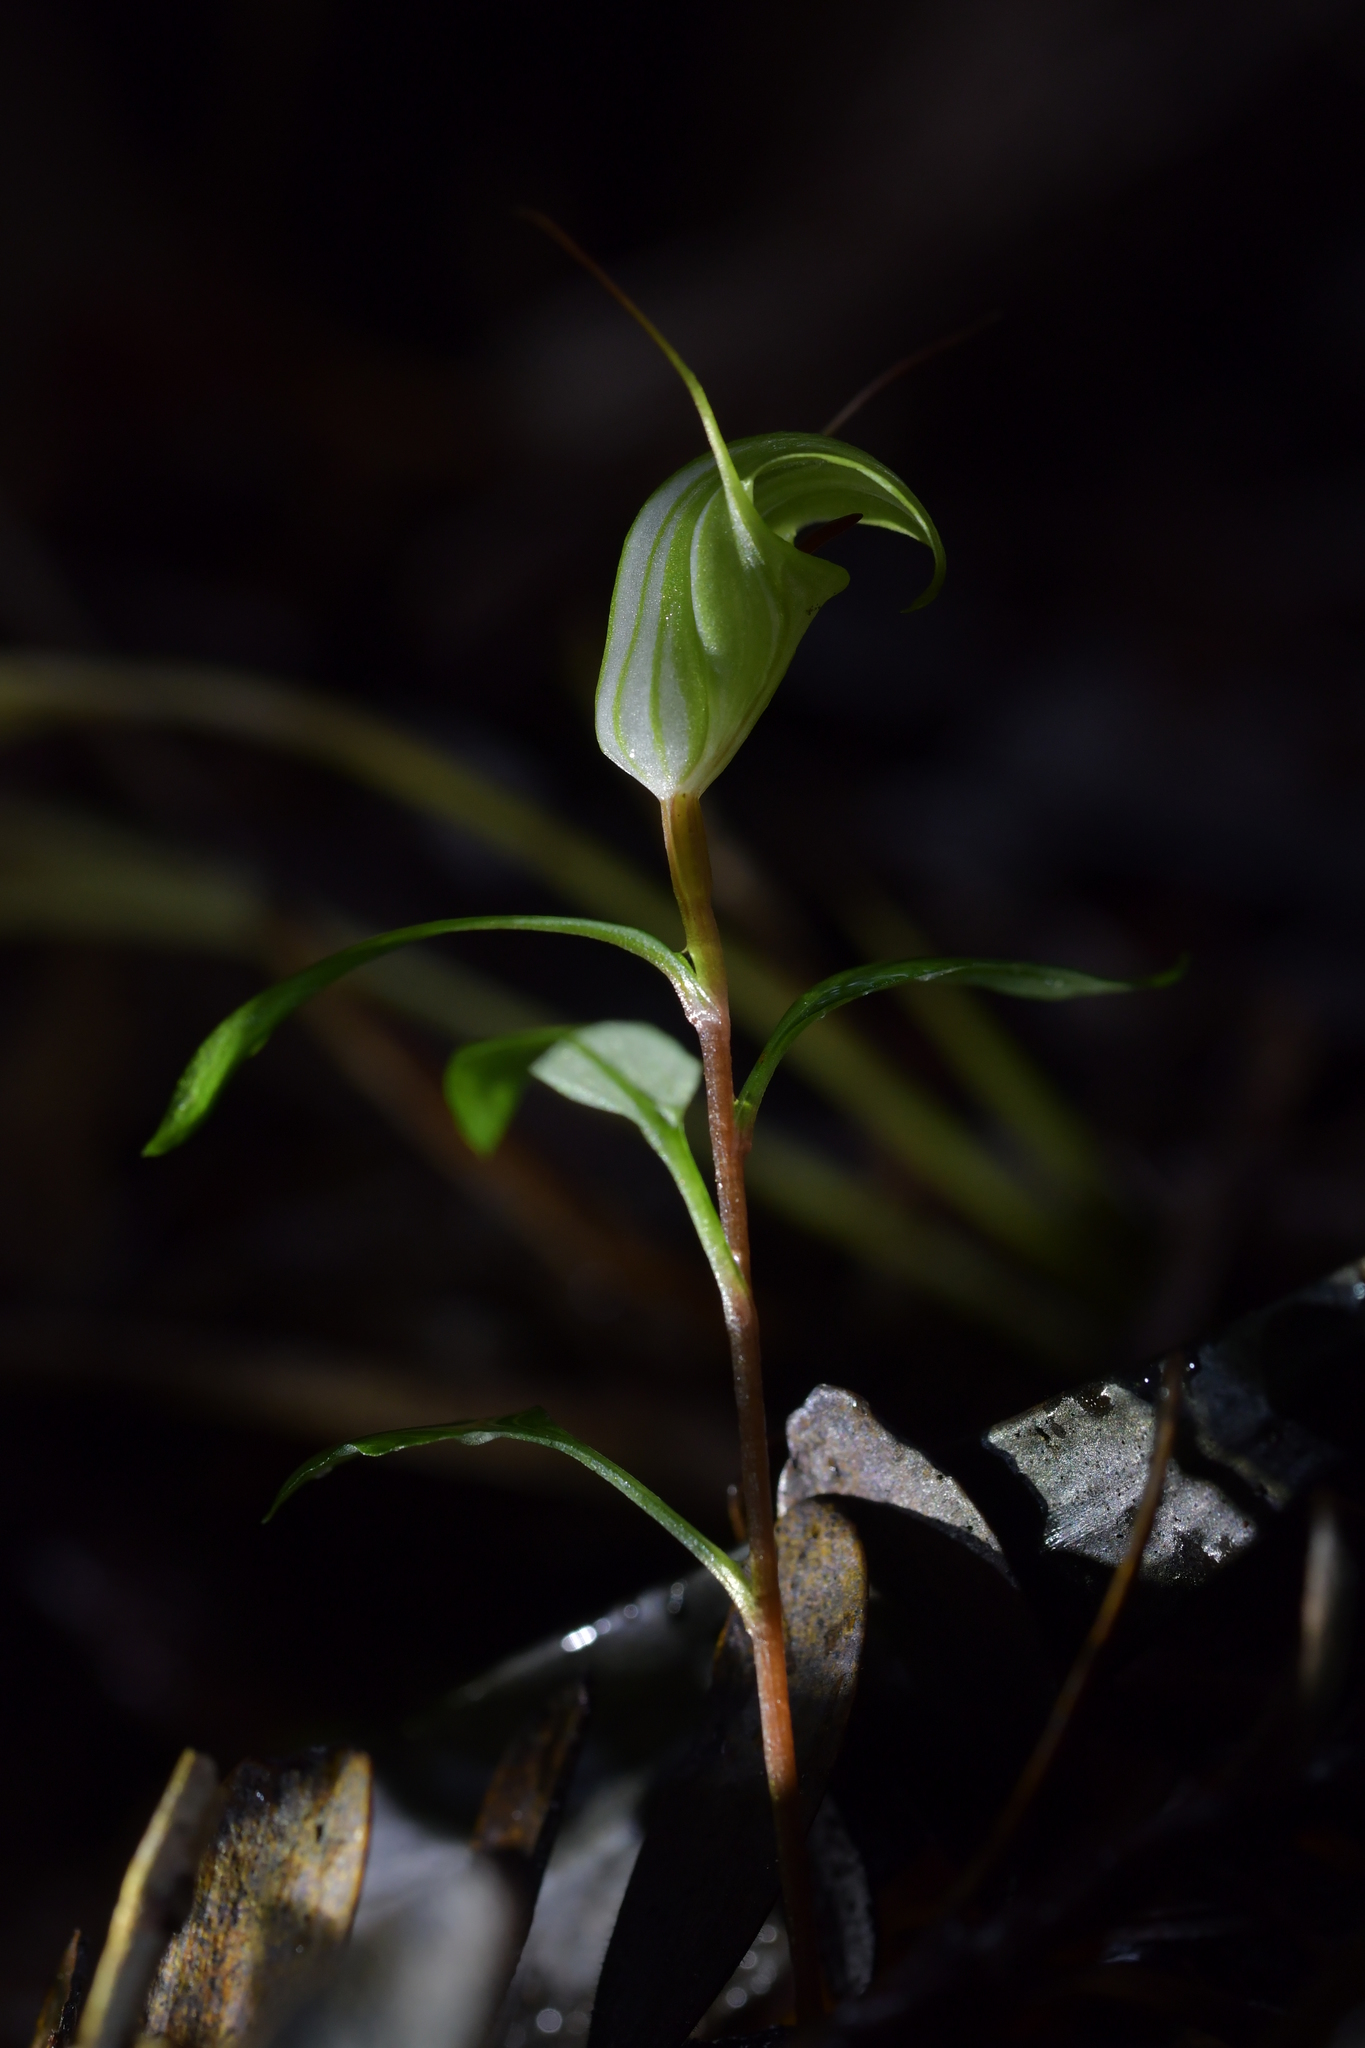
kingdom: Plantae
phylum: Tracheophyta
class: Liliopsida
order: Asparagales
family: Orchidaceae
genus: Pterostylis
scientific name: Pterostylis brumalis
